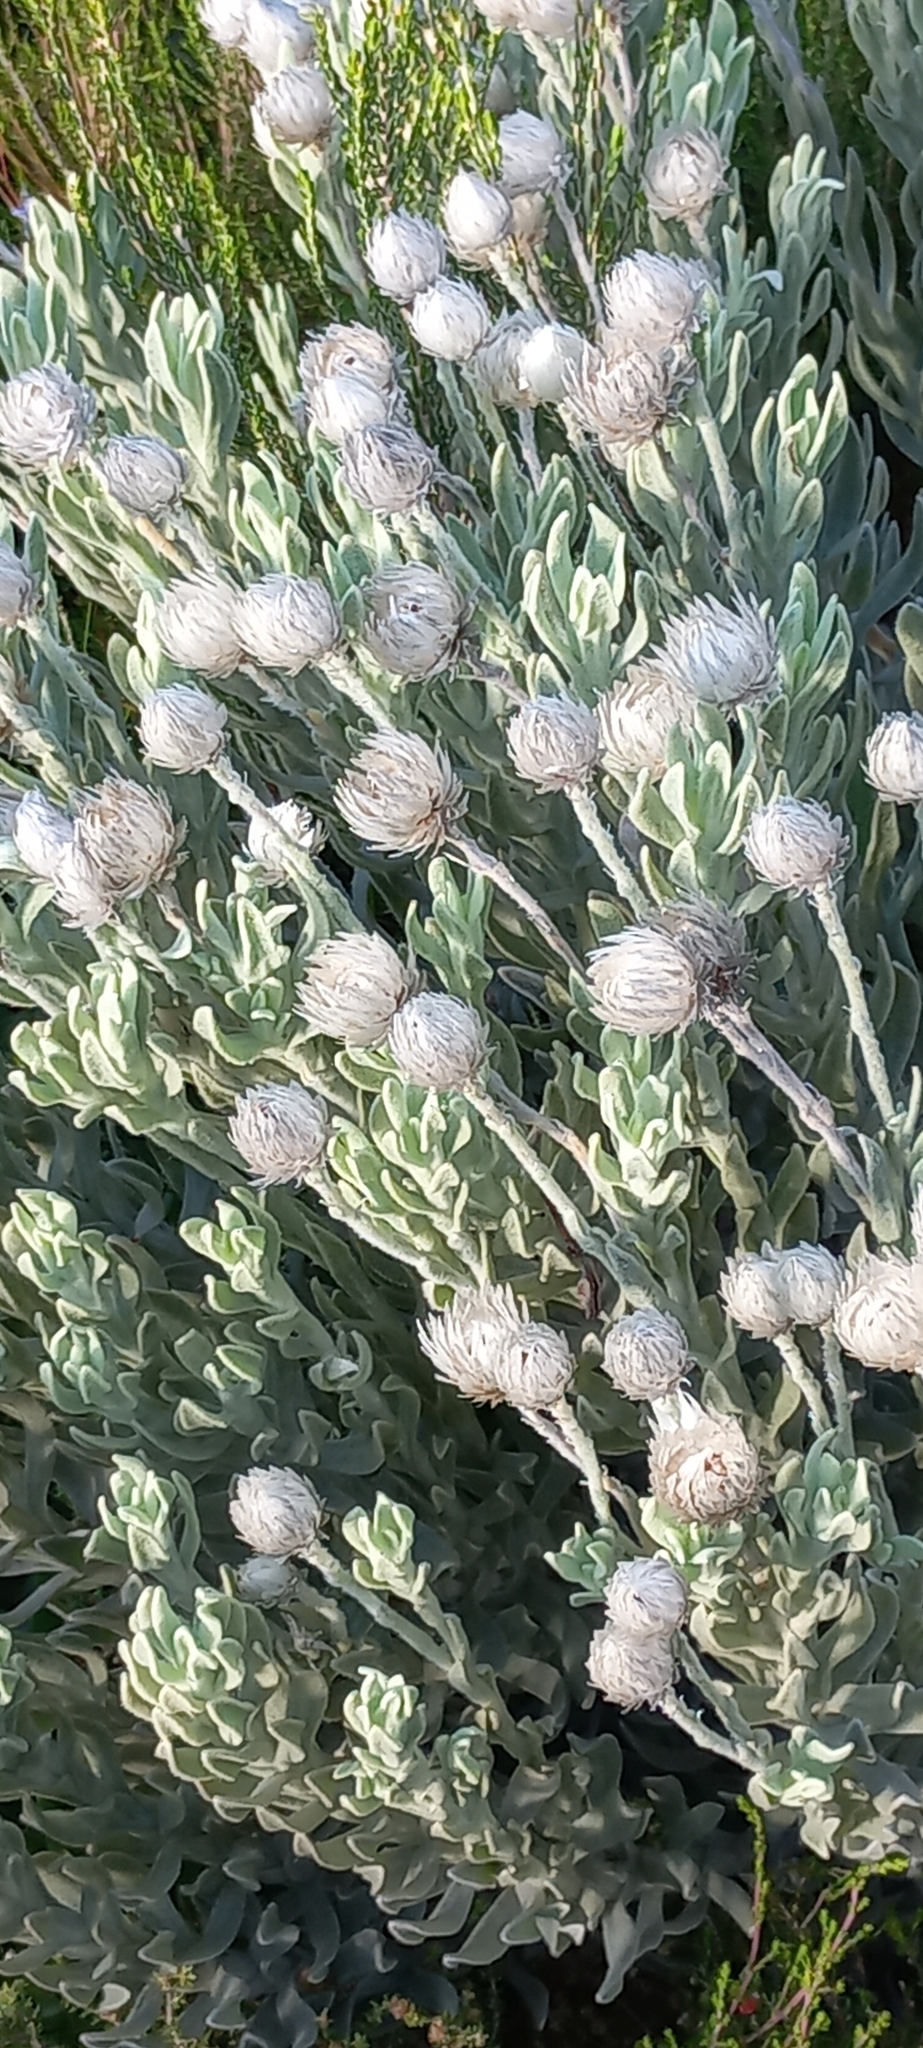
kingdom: Plantae
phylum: Tracheophyta
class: Magnoliopsida
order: Asterales
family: Asteraceae
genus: Syncarpha
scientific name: Syncarpha vestita
